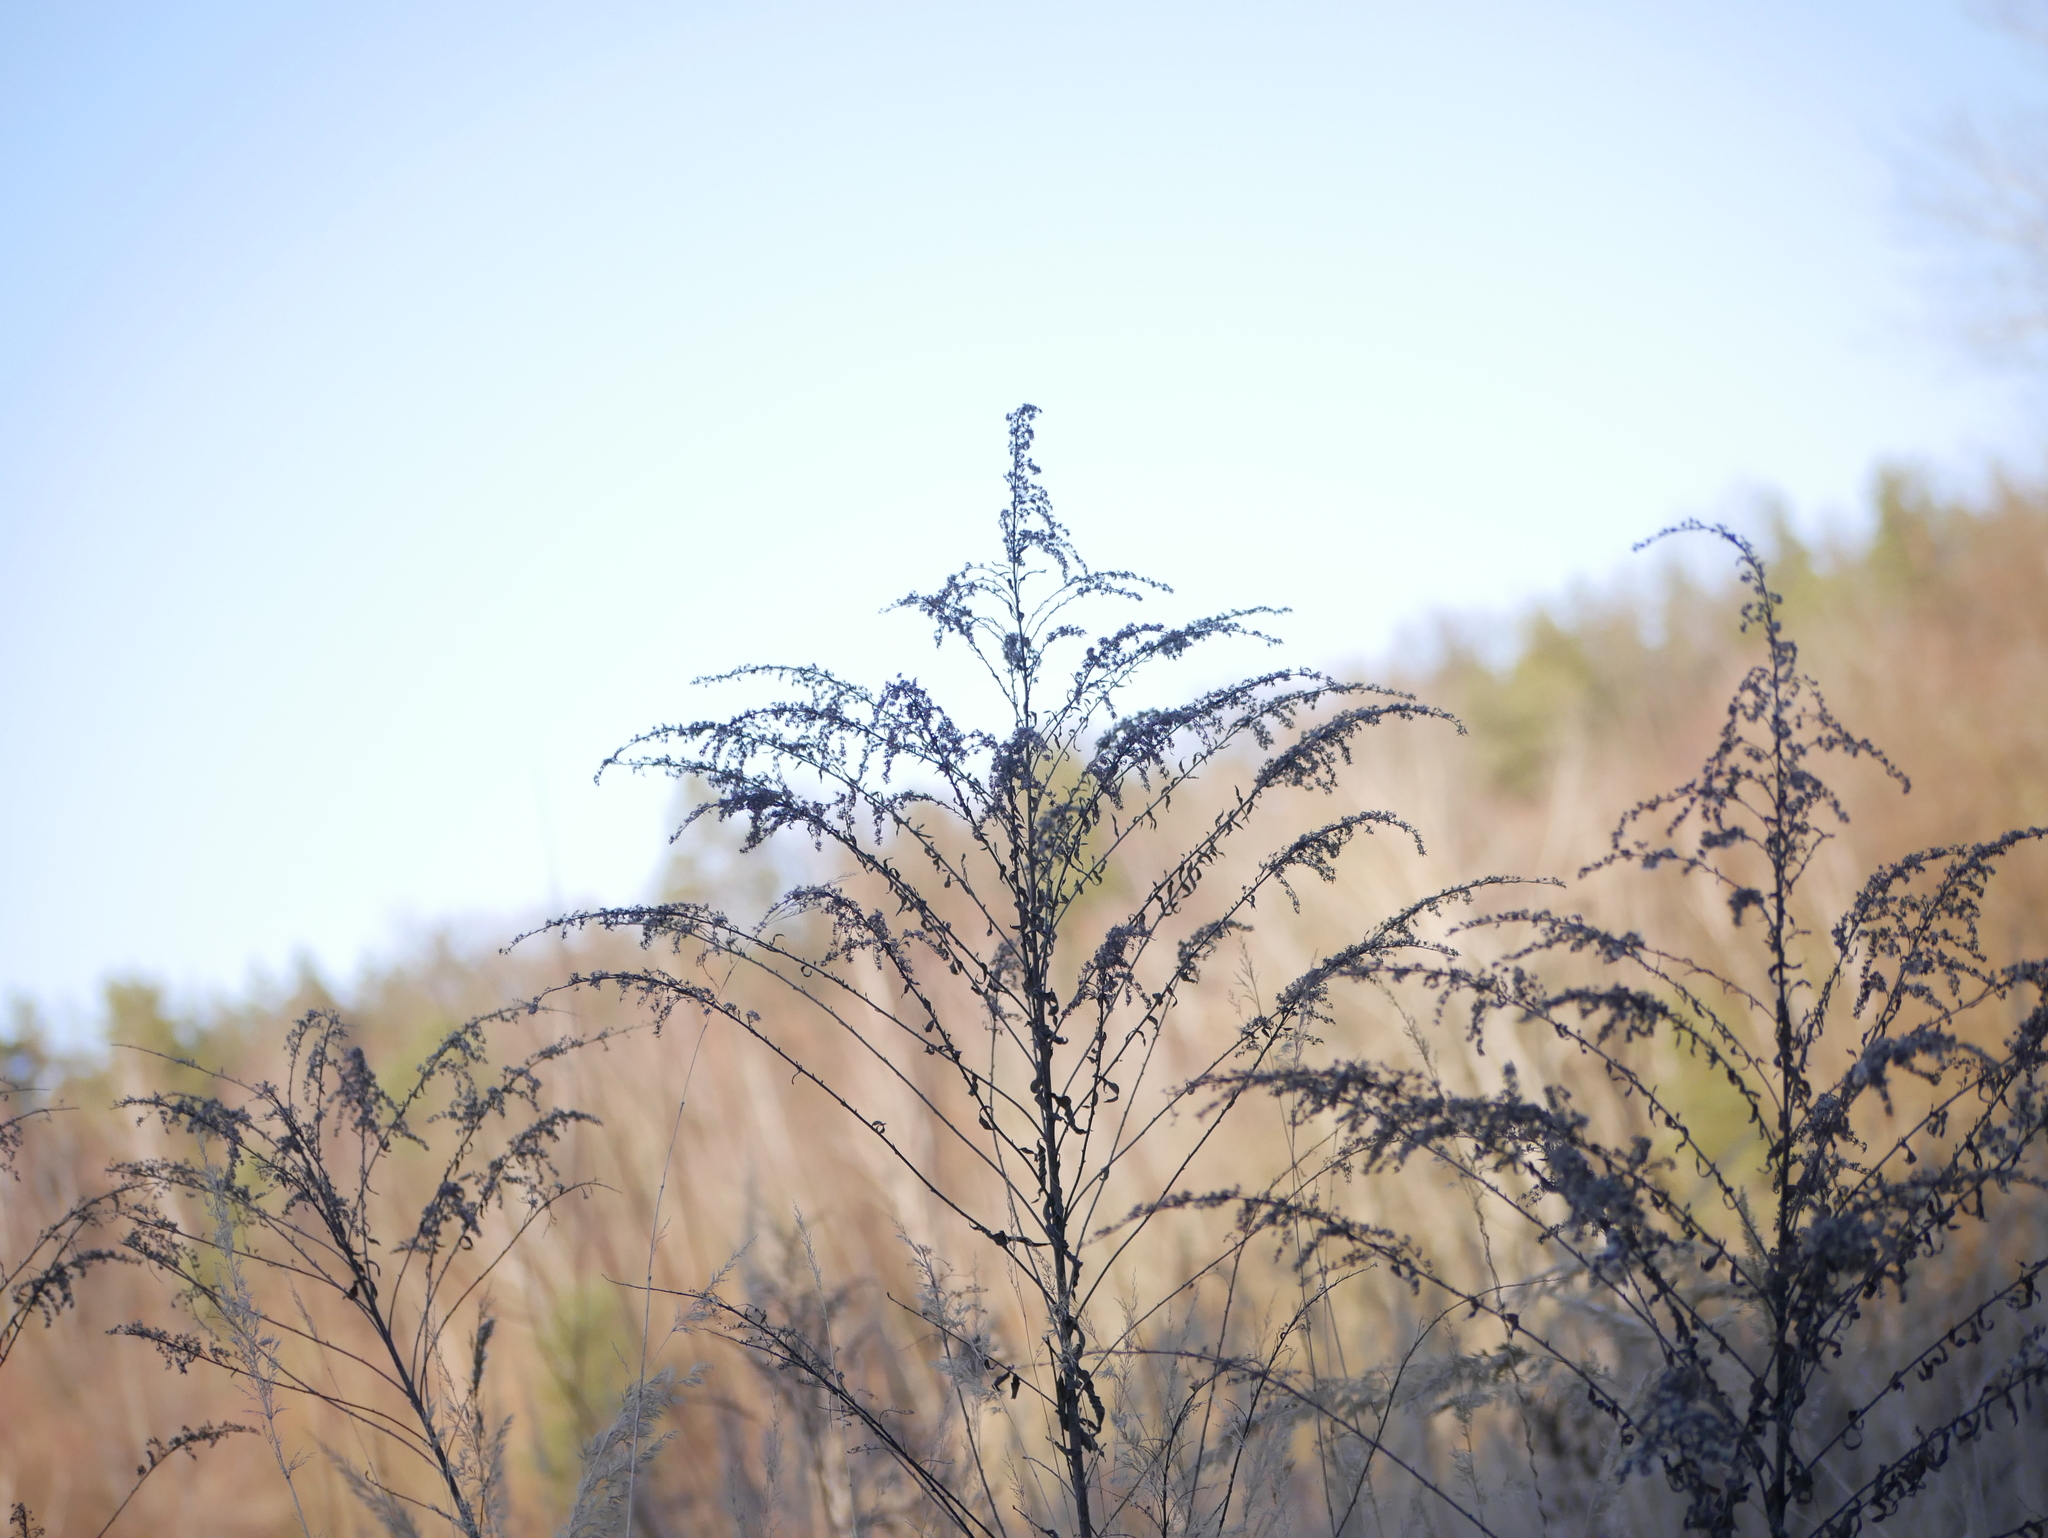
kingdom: Plantae
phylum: Tracheophyta
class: Magnoliopsida
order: Asterales
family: Asteraceae
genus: Solidago
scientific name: Solidago canadensis
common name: Canada goldenrod
